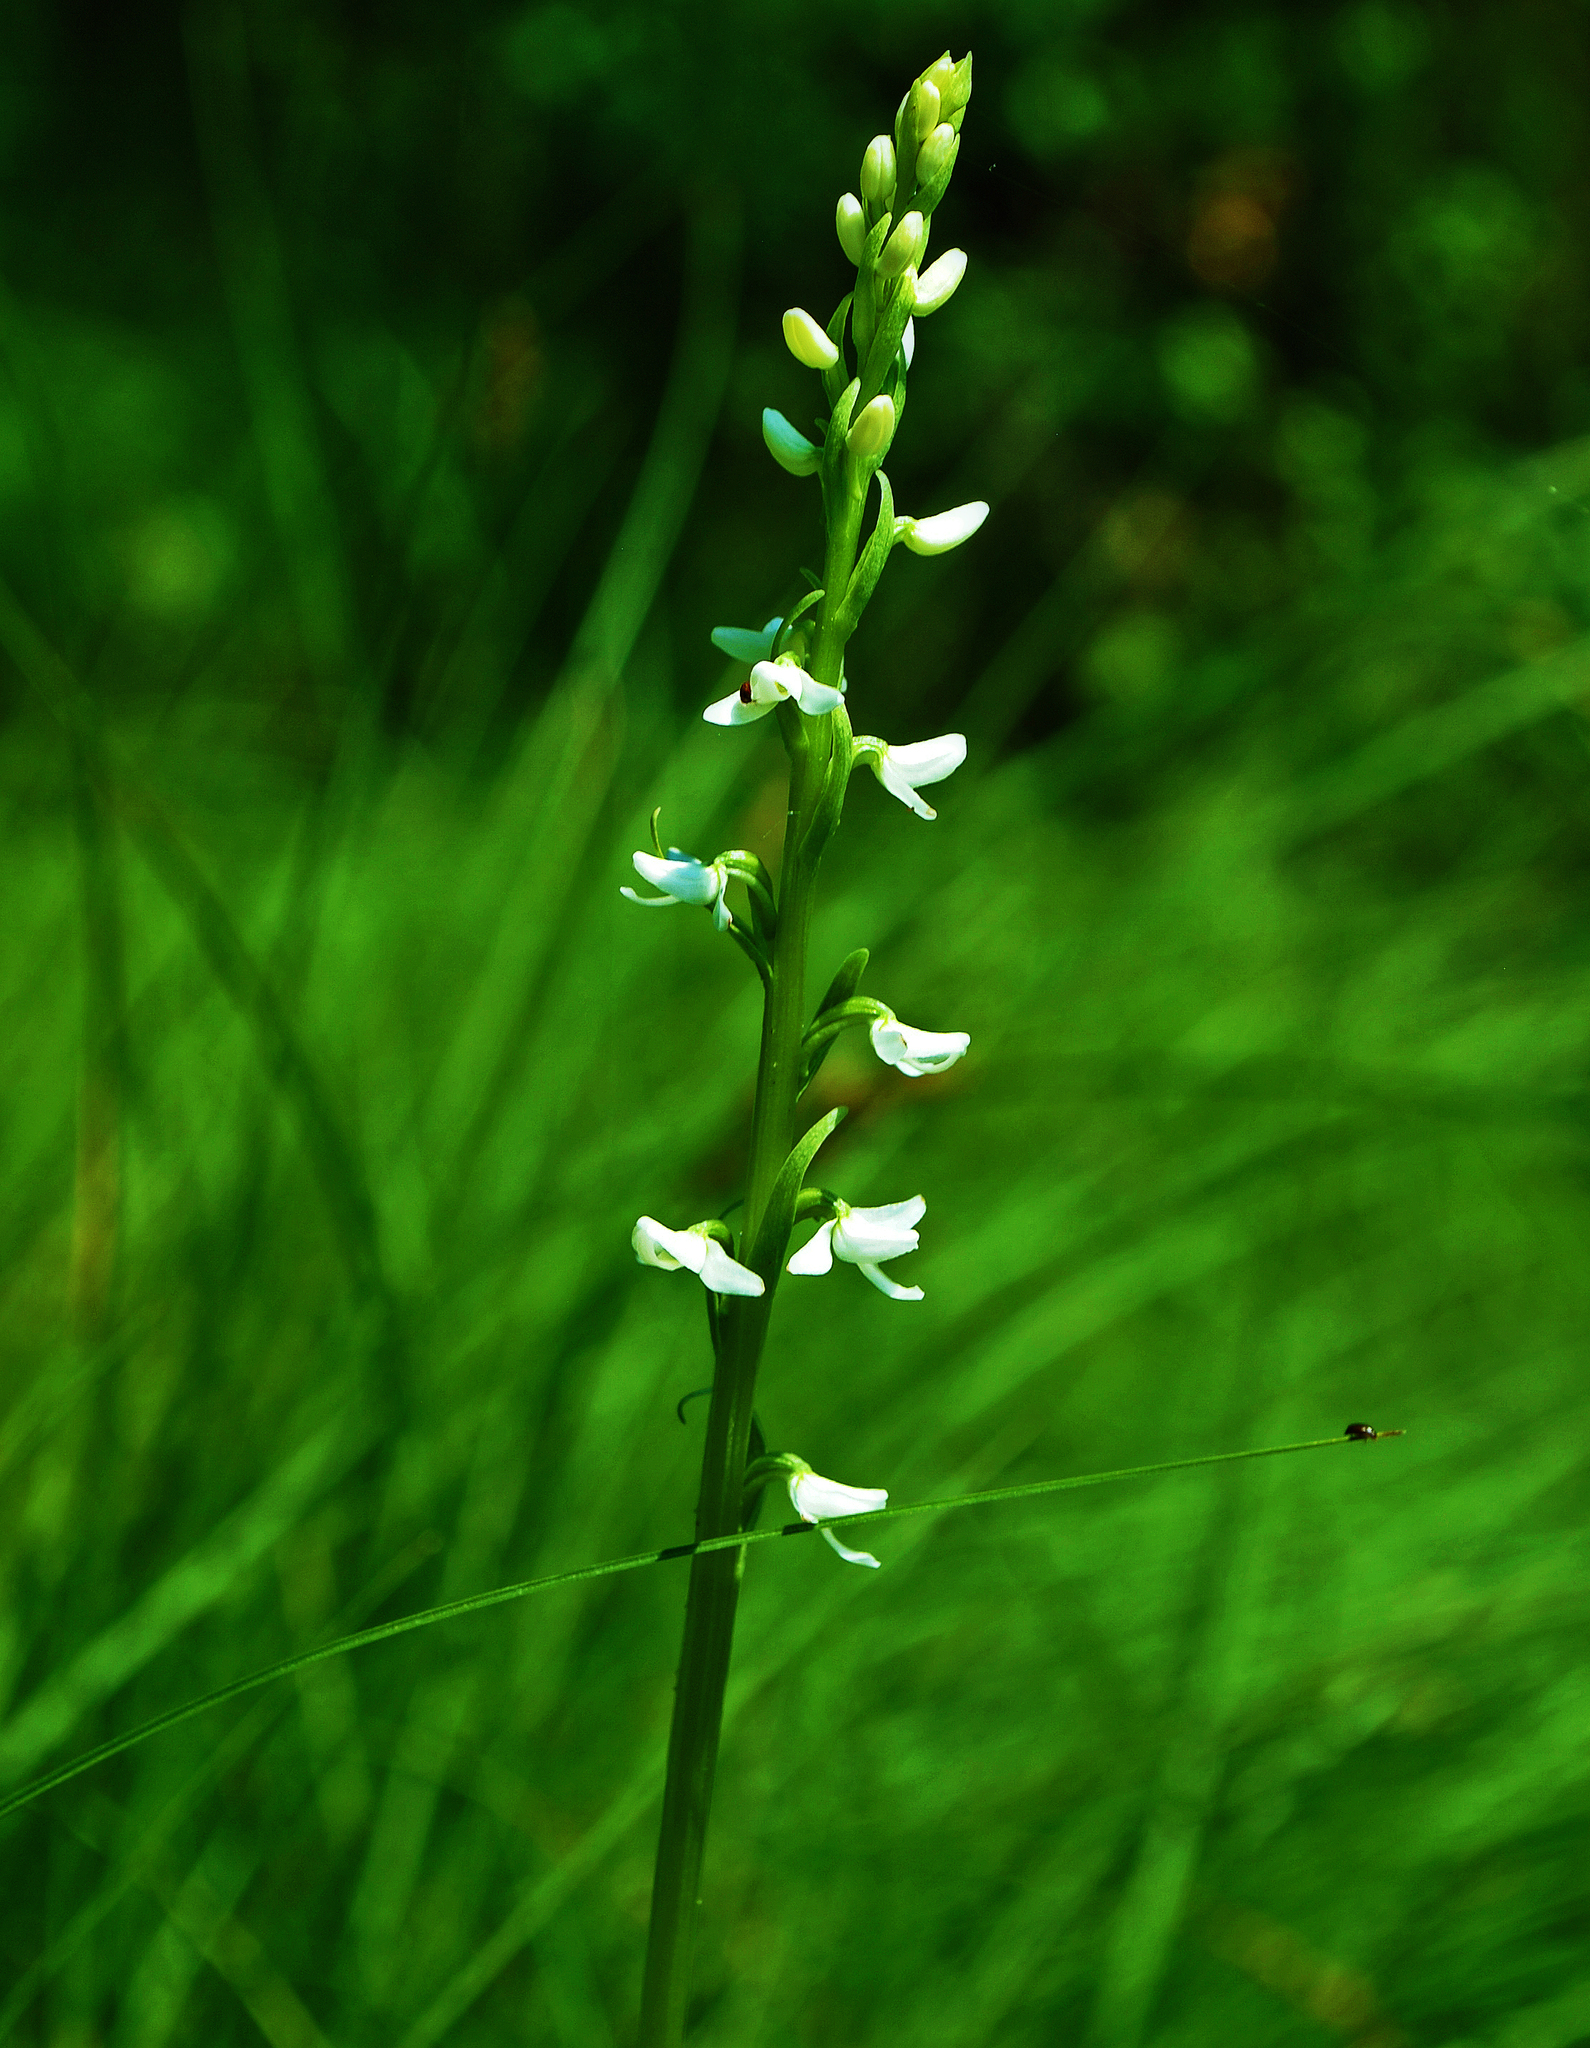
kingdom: Plantae
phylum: Tracheophyta
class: Liliopsida
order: Asparagales
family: Orchidaceae
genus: Platanthera
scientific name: Platanthera dilatata
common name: Bog candles
